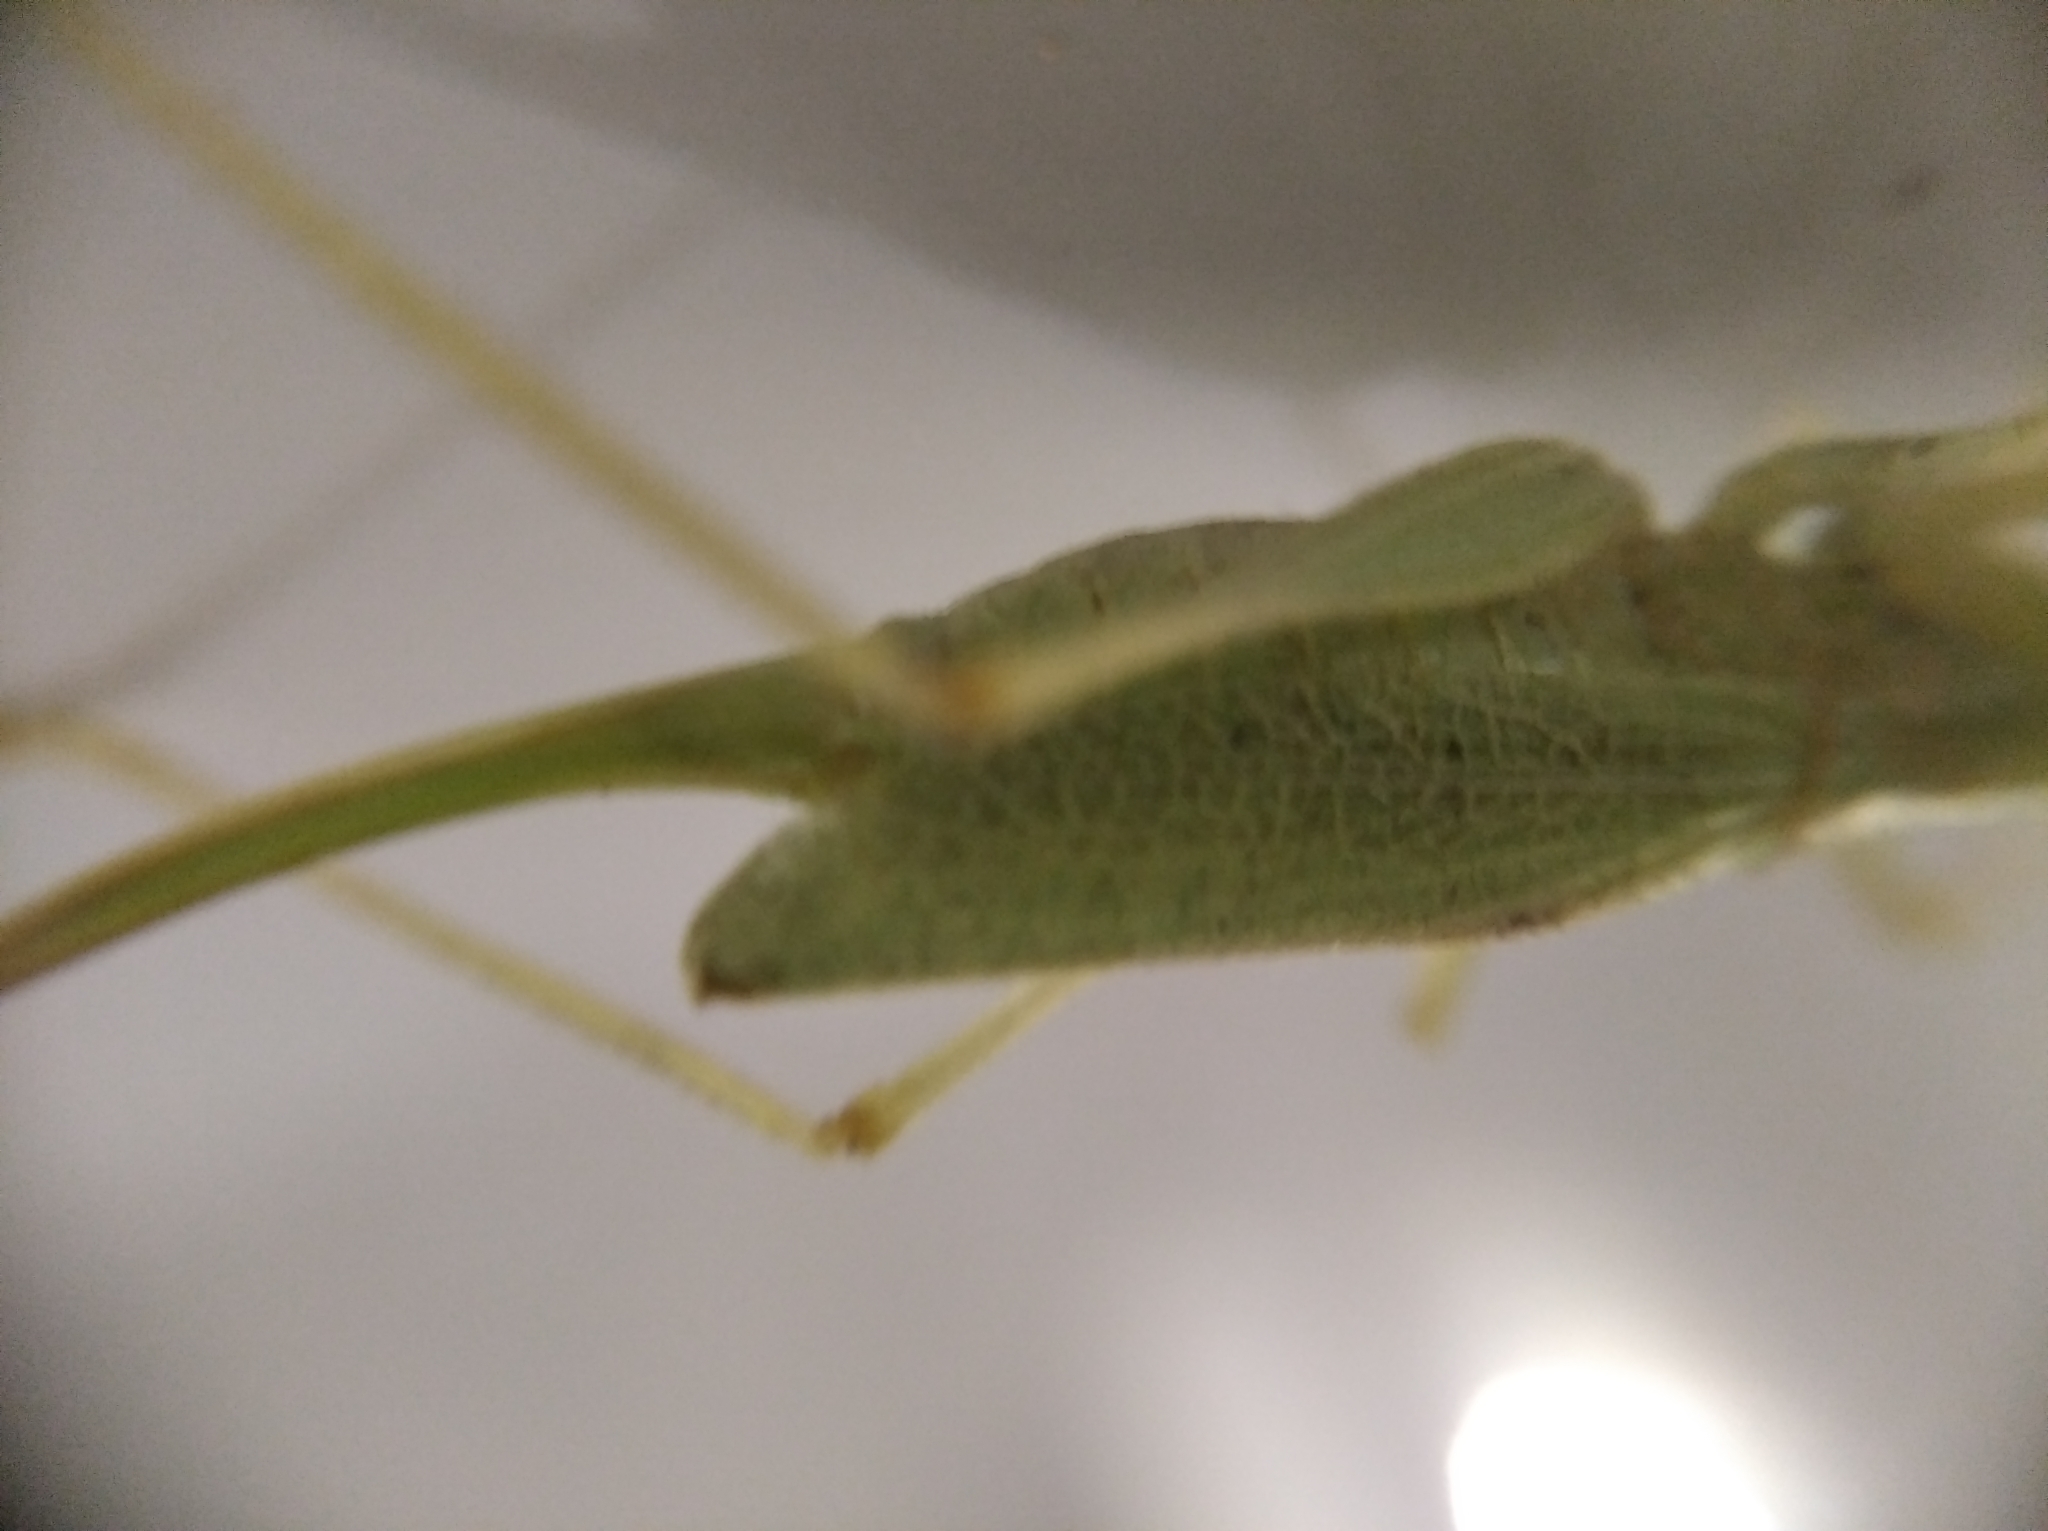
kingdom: Animalia
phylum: Arthropoda
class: Insecta
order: Orthoptera
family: Tettigoniidae
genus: Meconema
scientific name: Meconema thalassinum
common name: Oak bush-cricket
